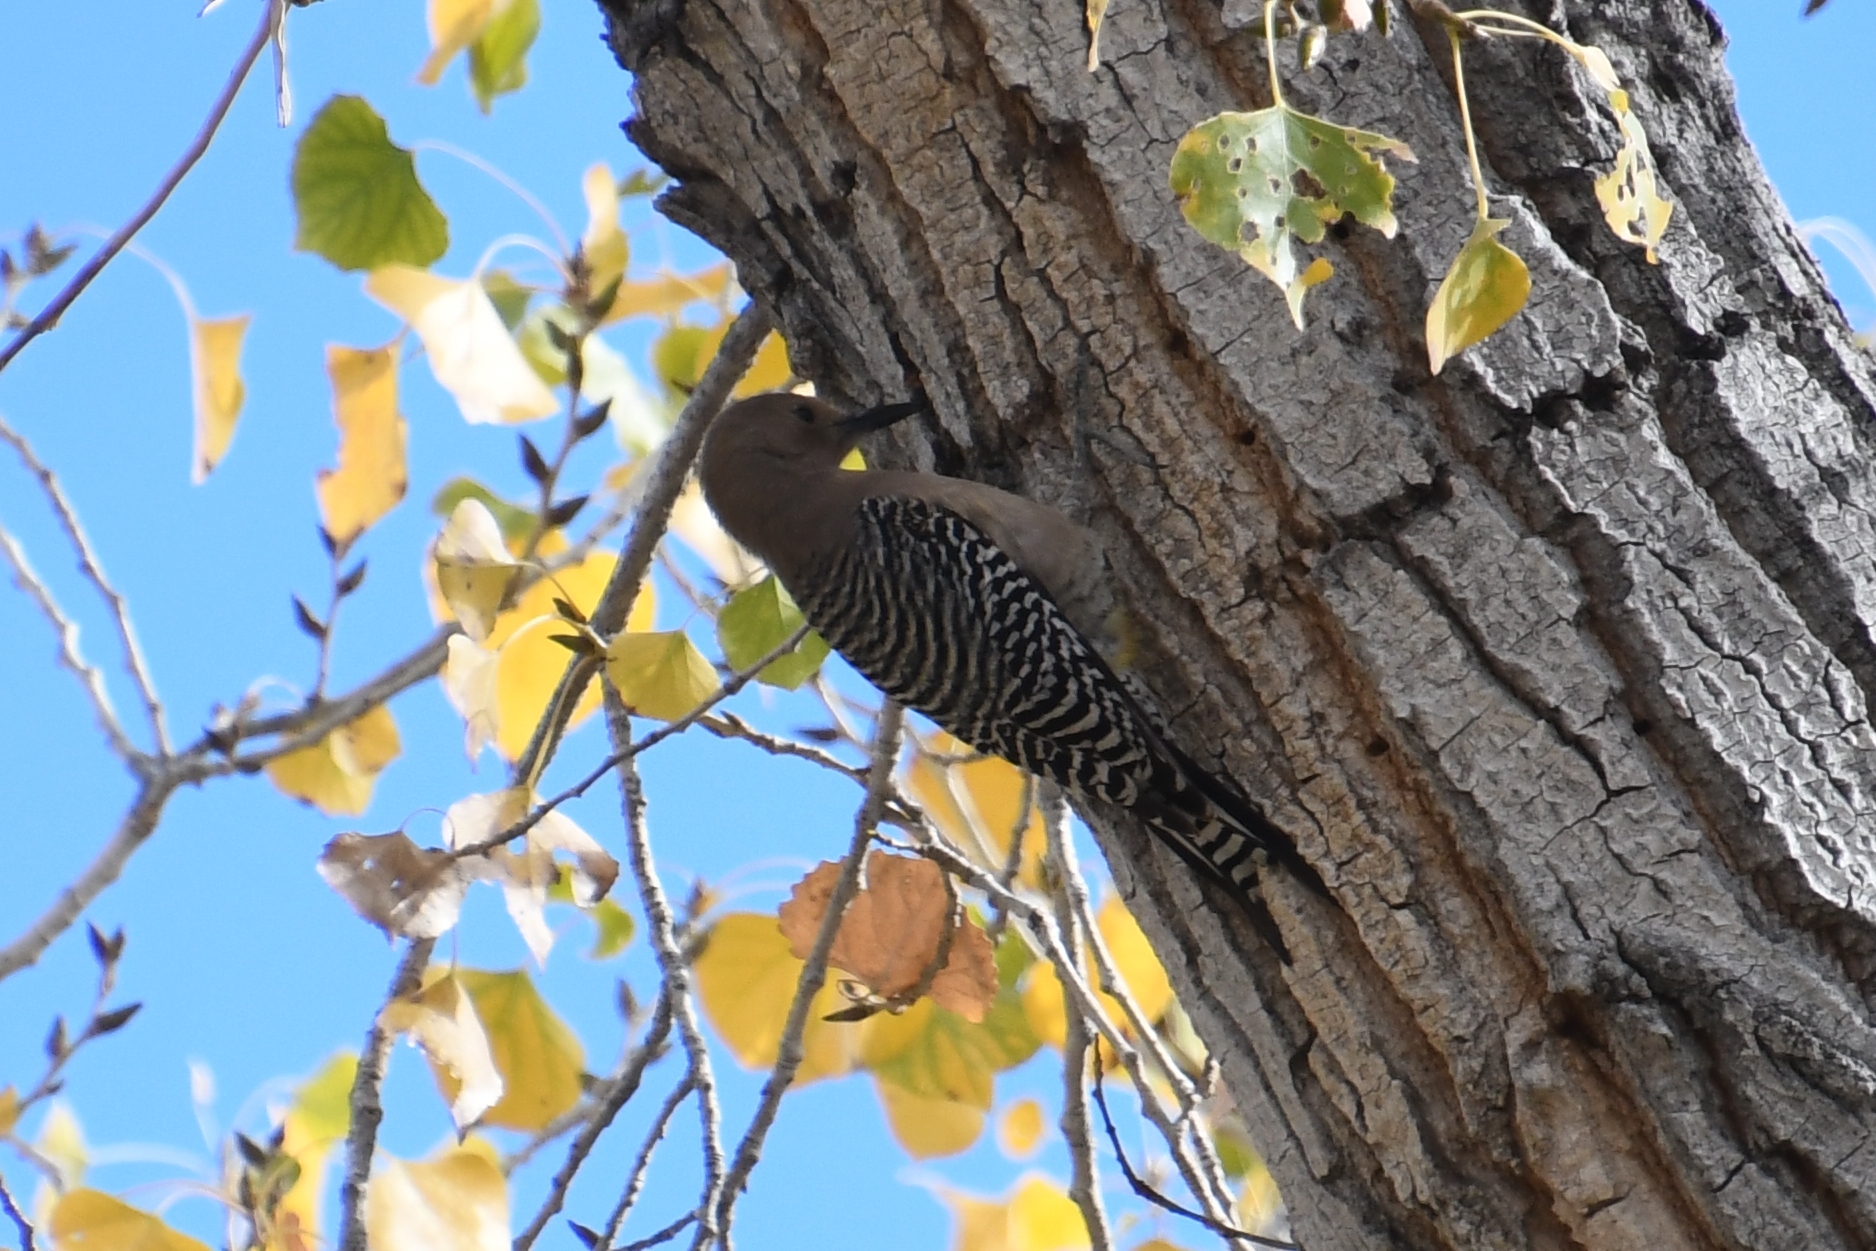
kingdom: Animalia
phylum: Chordata
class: Aves
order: Piciformes
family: Picidae
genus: Melanerpes
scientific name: Melanerpes uropygialis
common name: Gila woodpecker
